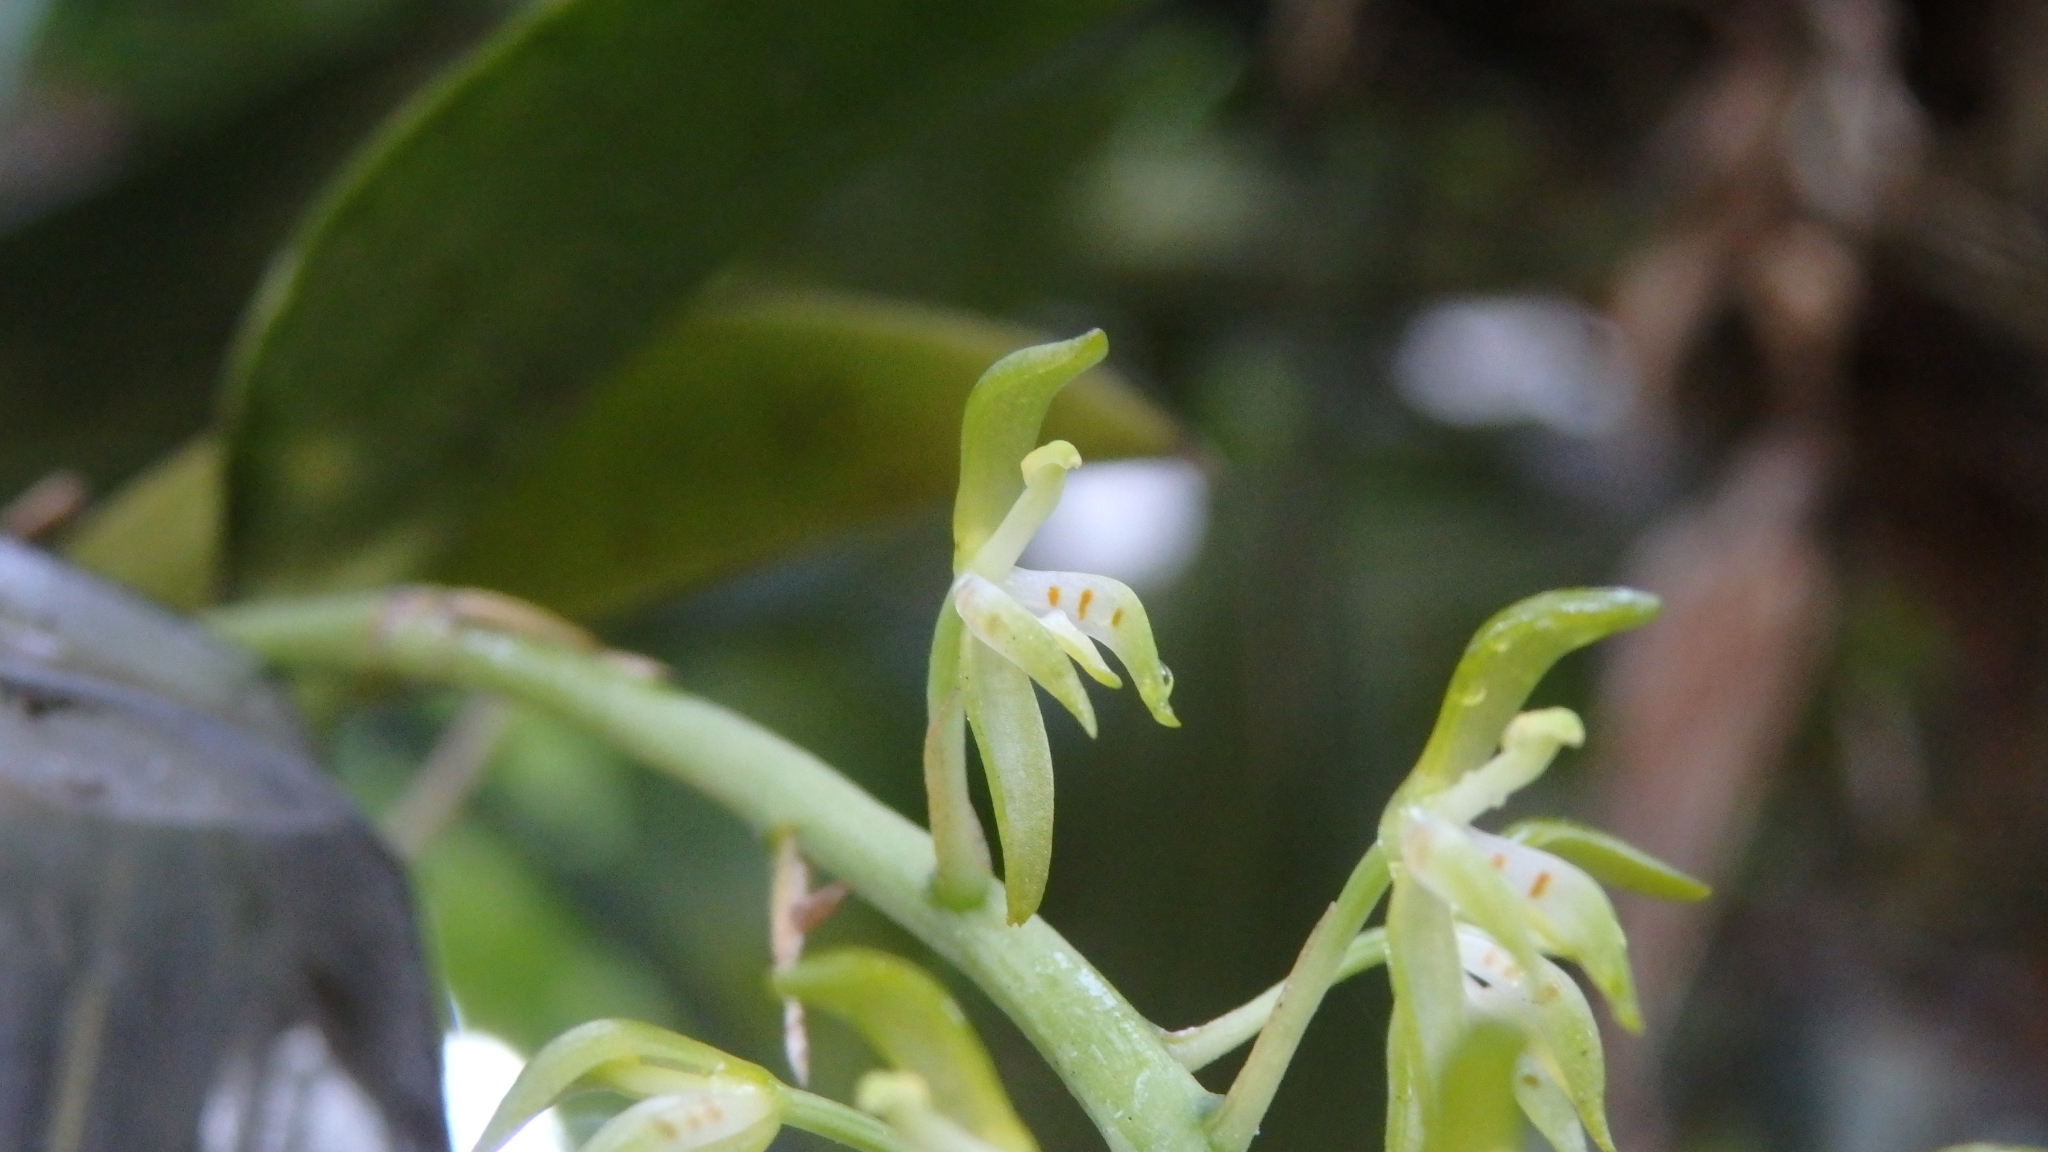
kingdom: Plantae
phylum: Tracheophyta
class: Liliopsida
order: Asparagales
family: Orchidaceae
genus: Notylia
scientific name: Notylia orbicularis
